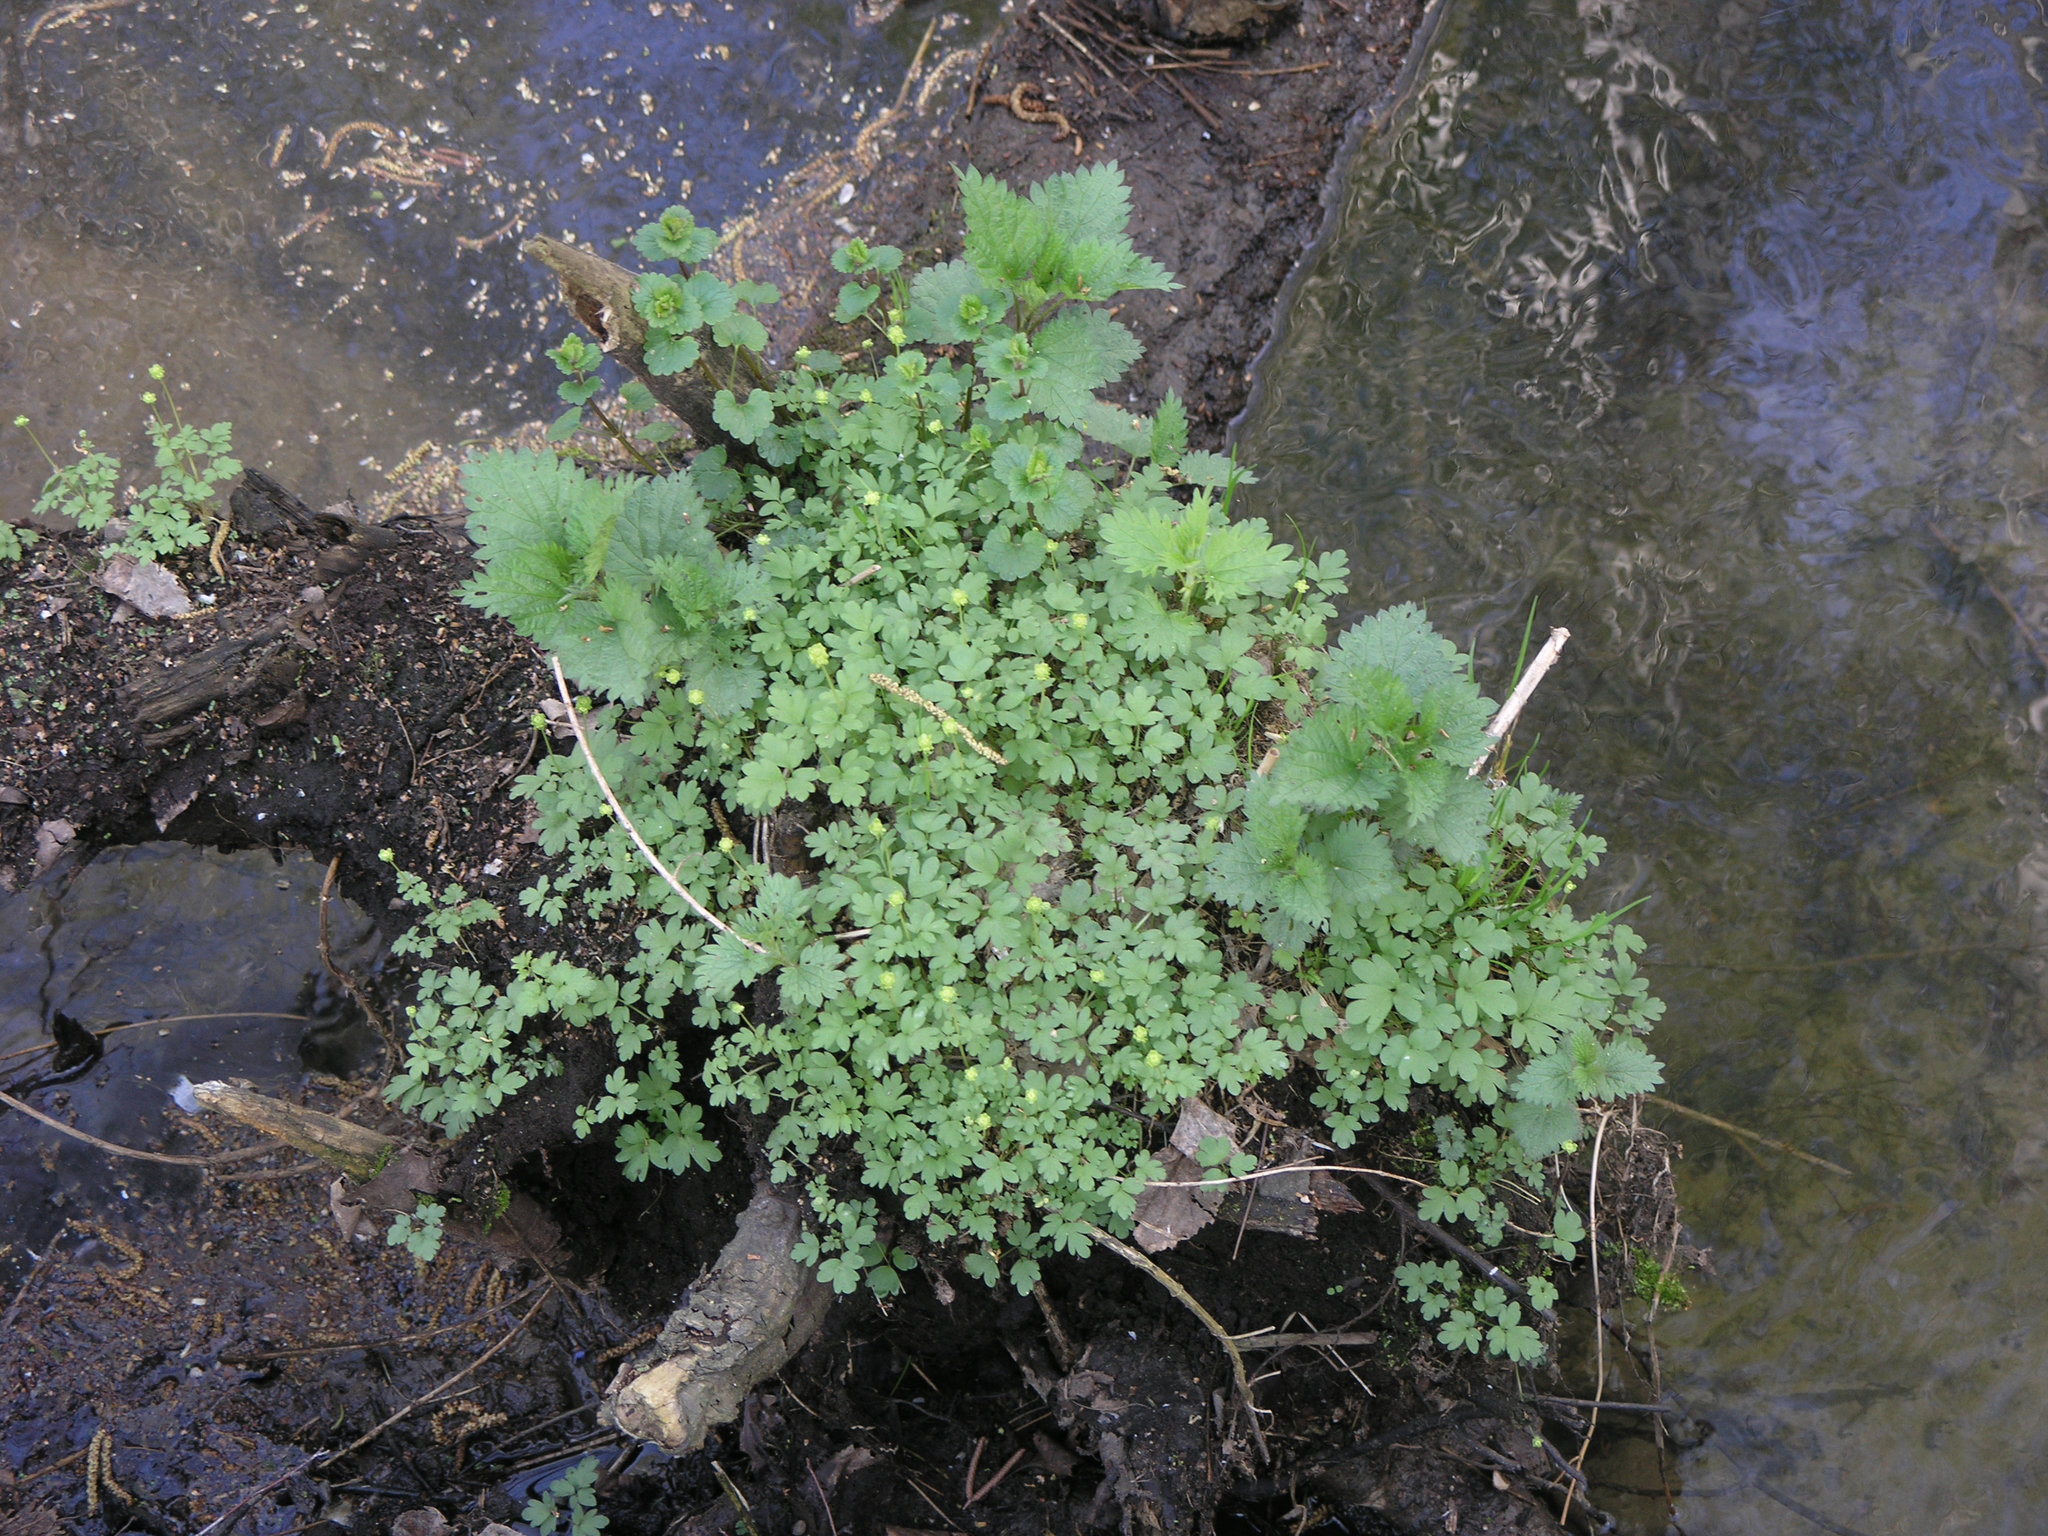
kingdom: Plantae
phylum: Tracheophyta
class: Magnoliopsida
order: Dipsacales
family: Viburnaceae
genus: Adoxa
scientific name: Adoxa moschatellina
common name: Moschatel
